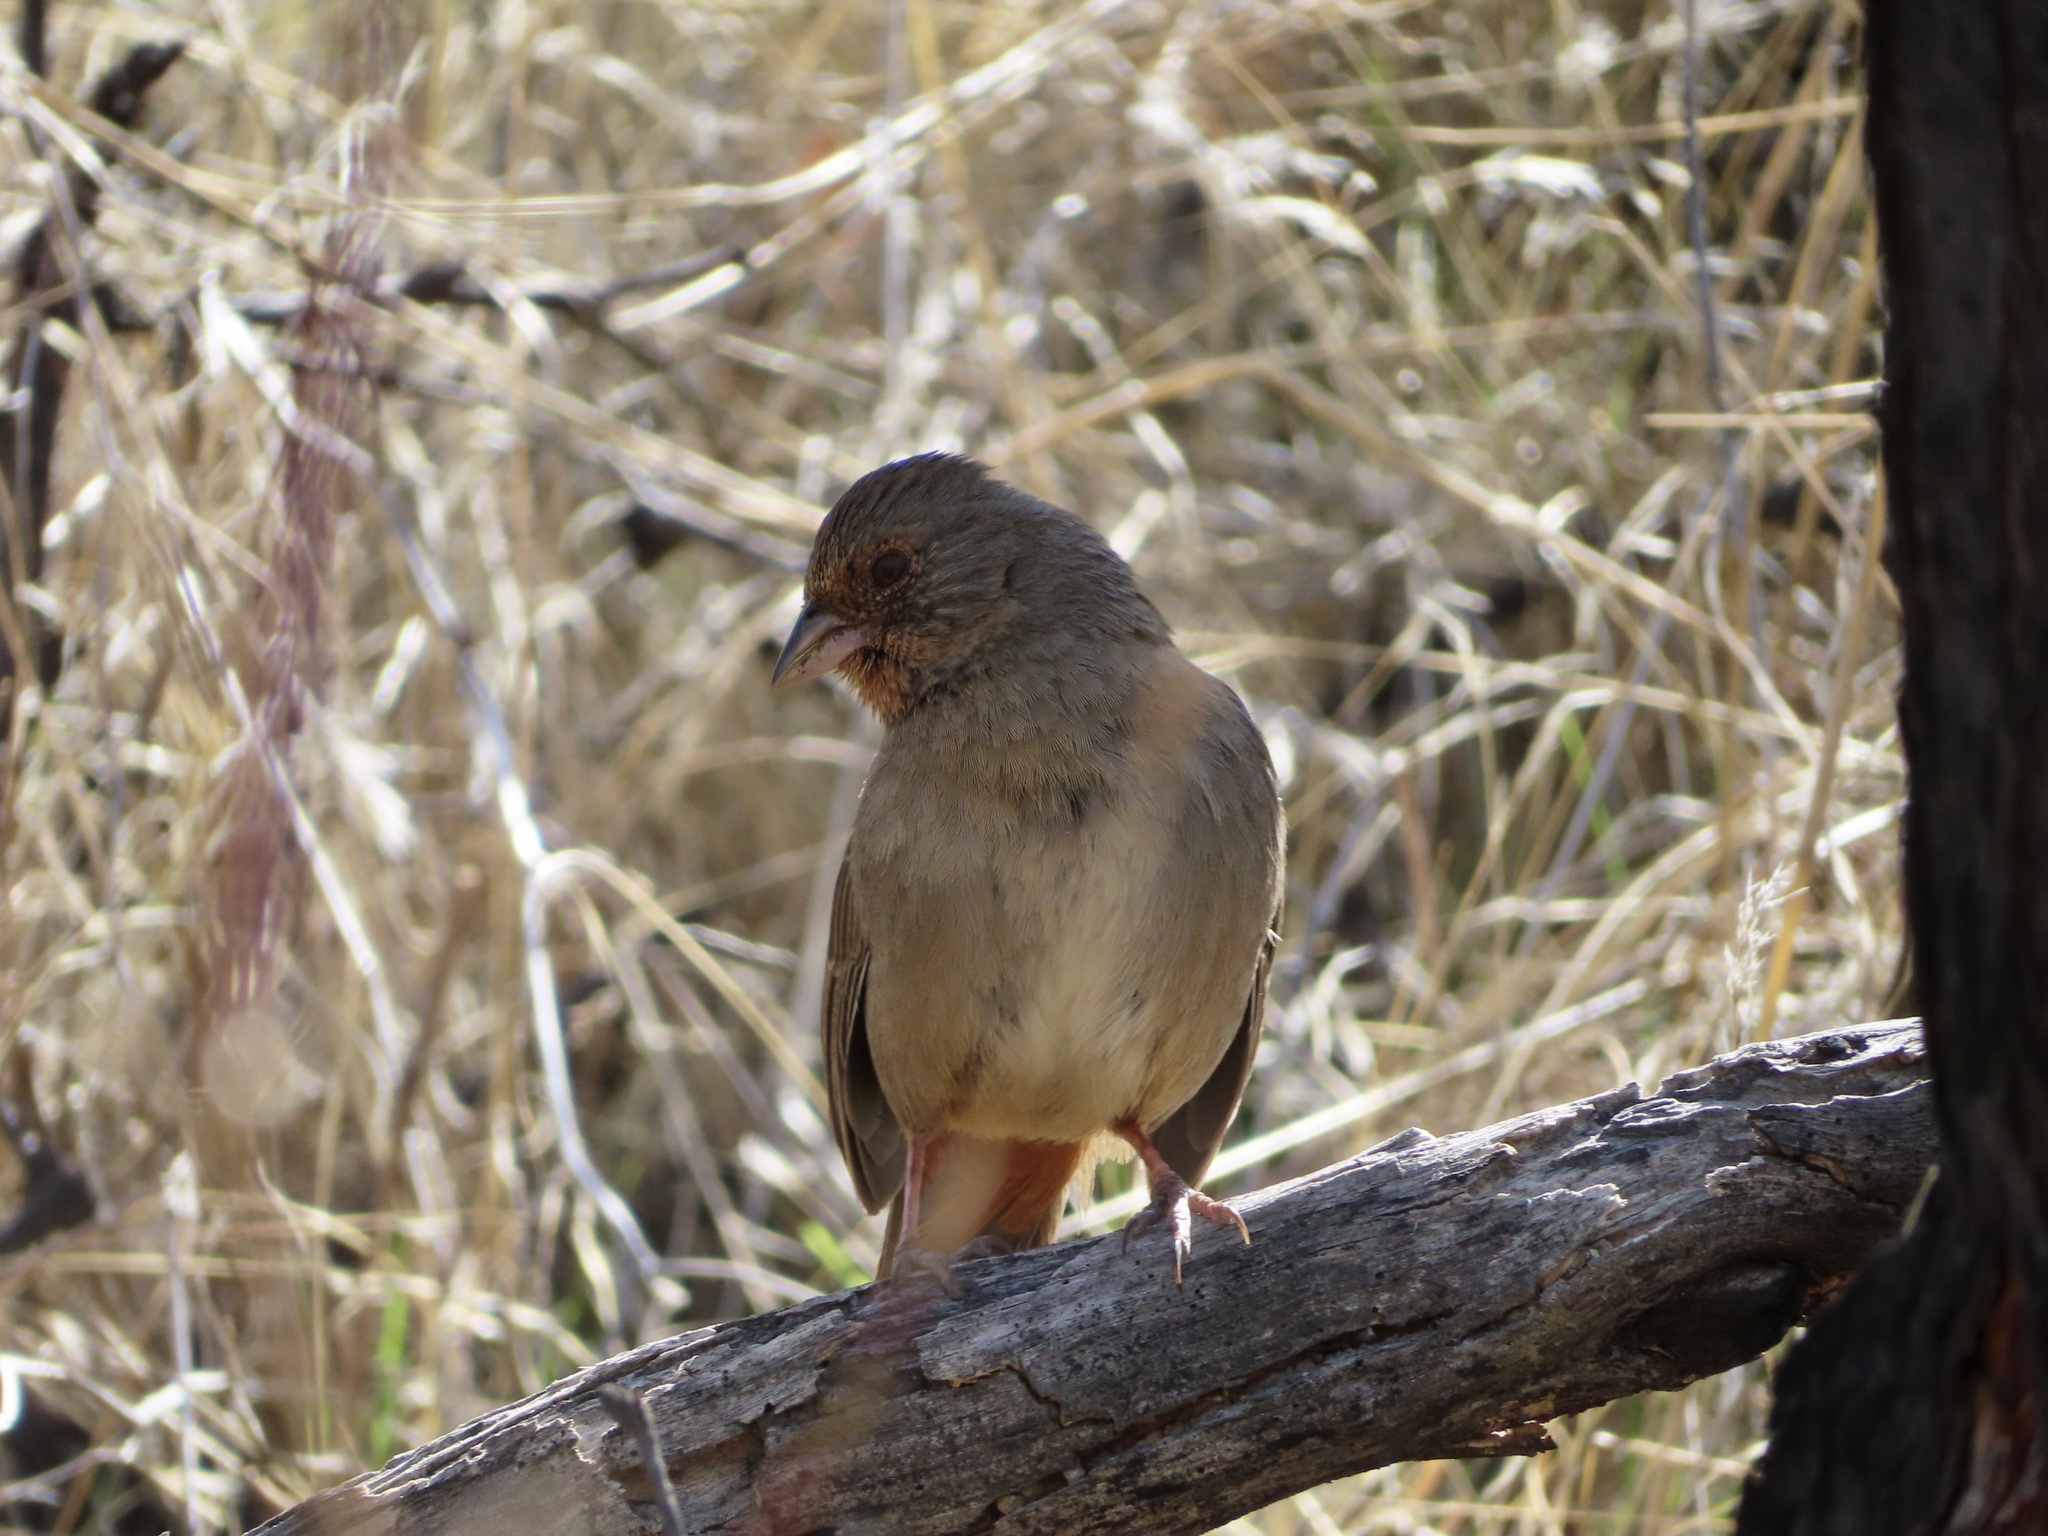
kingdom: Animalia
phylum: Chordata
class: Aves
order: Passeriformes
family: Passerellidae
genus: Melozone
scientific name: Melozone crissalis
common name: California towhee
